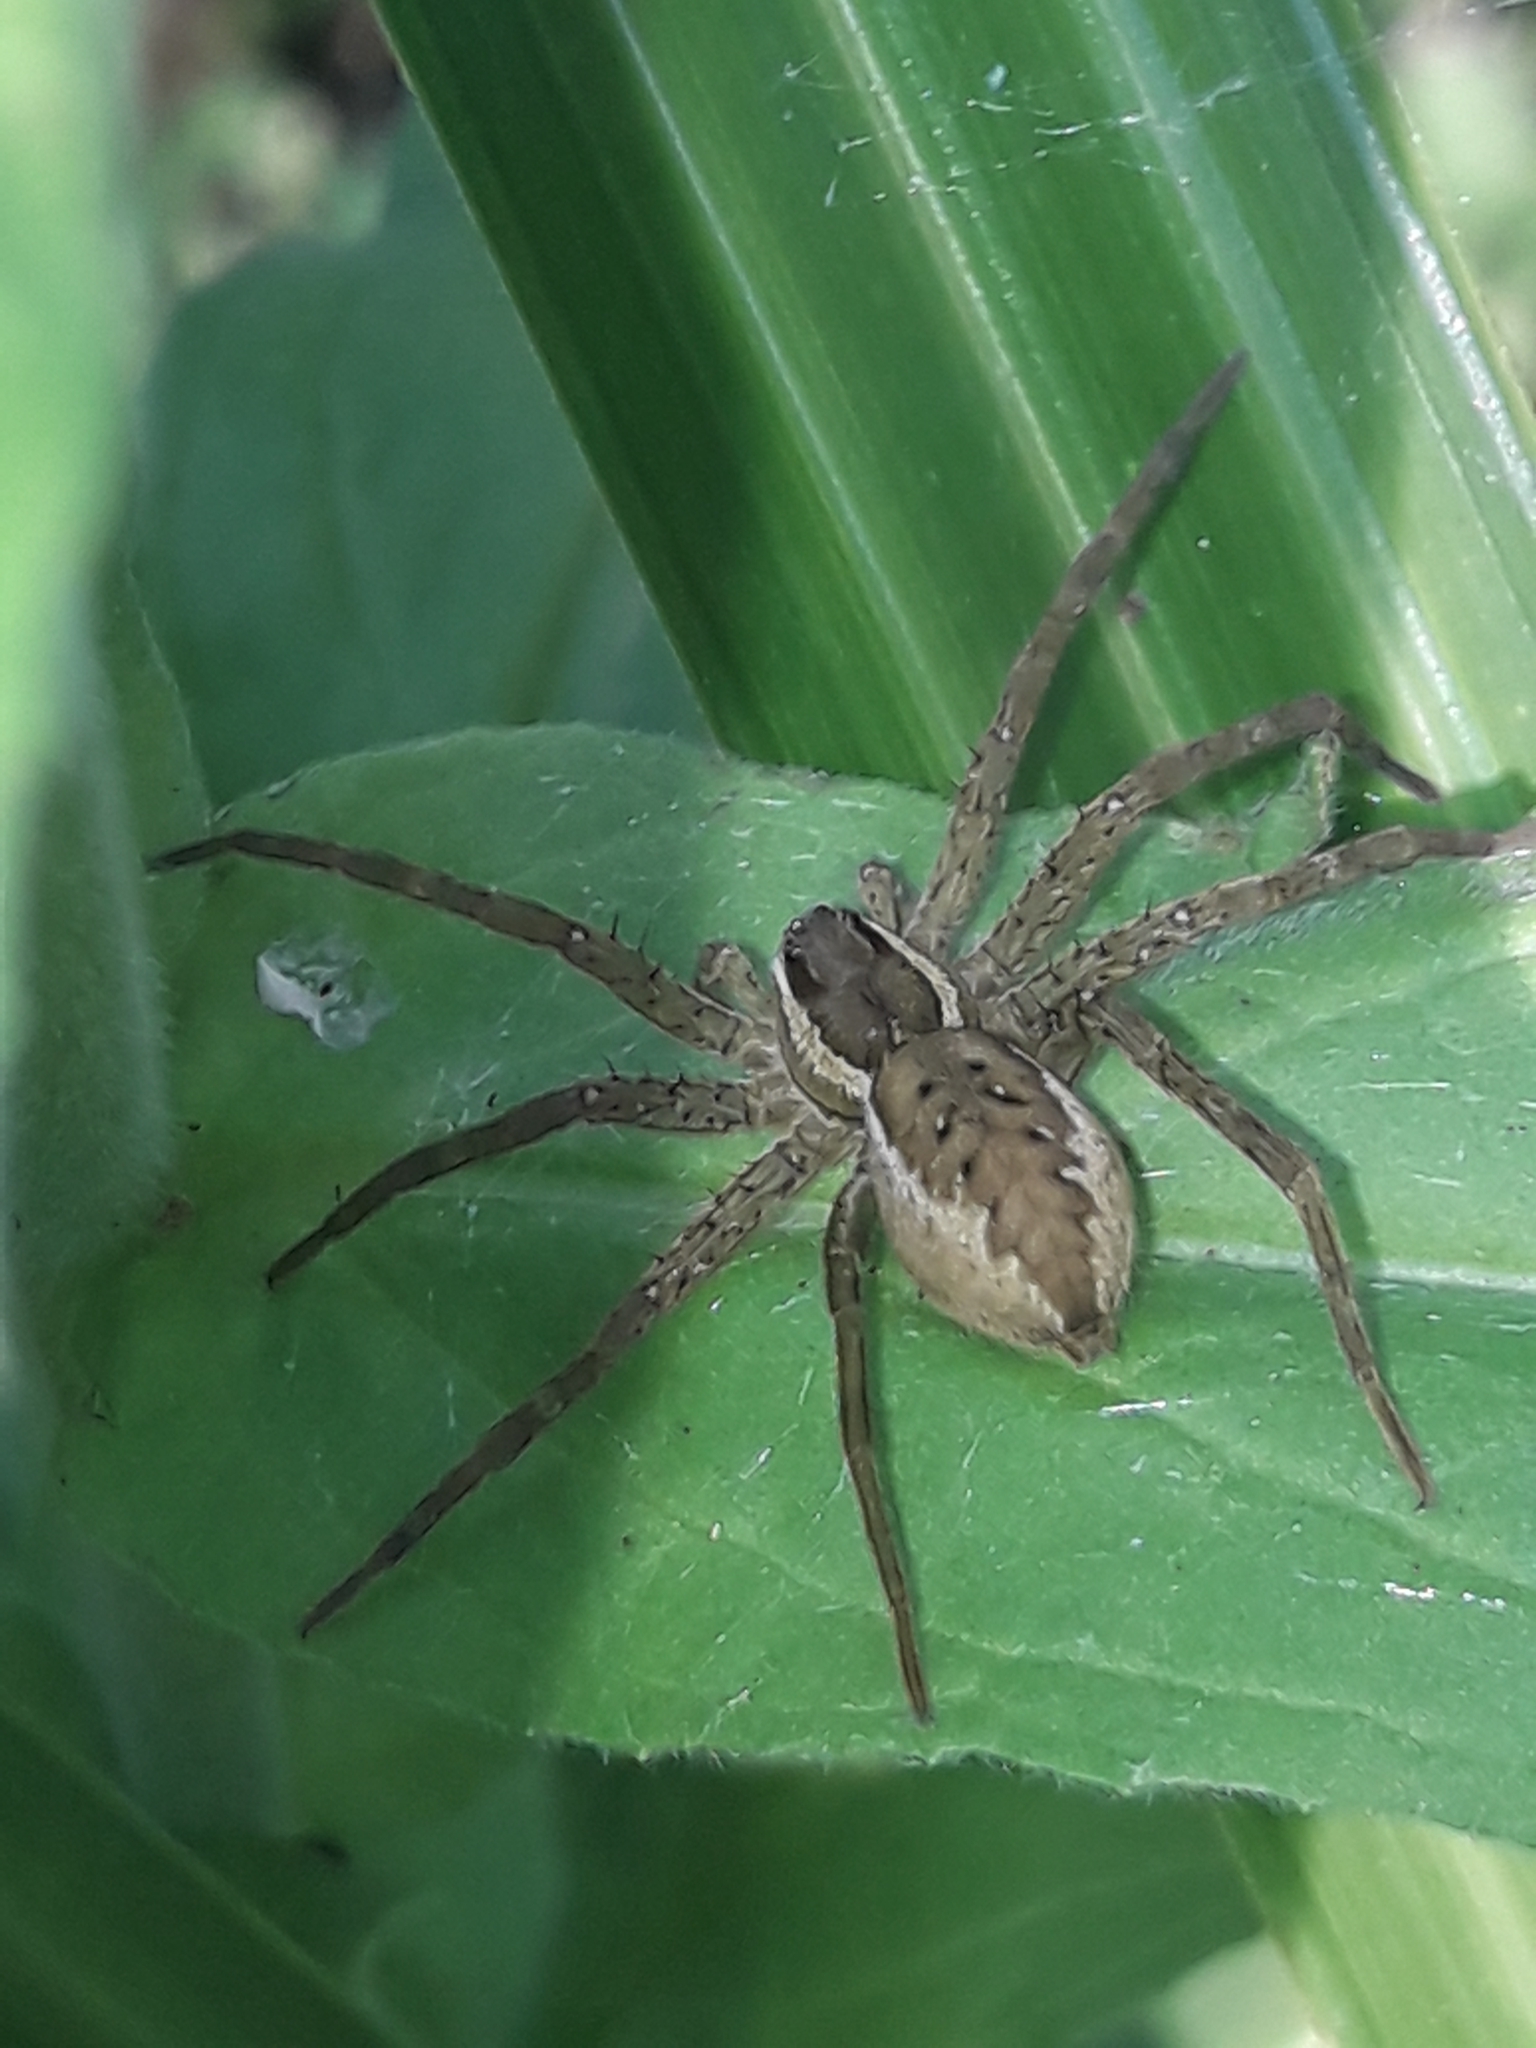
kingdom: Animalia
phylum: Arthropoda
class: Arachnida
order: Araneae
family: Pisauridae
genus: Dolomedes
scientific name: Dolomedes dondalei
